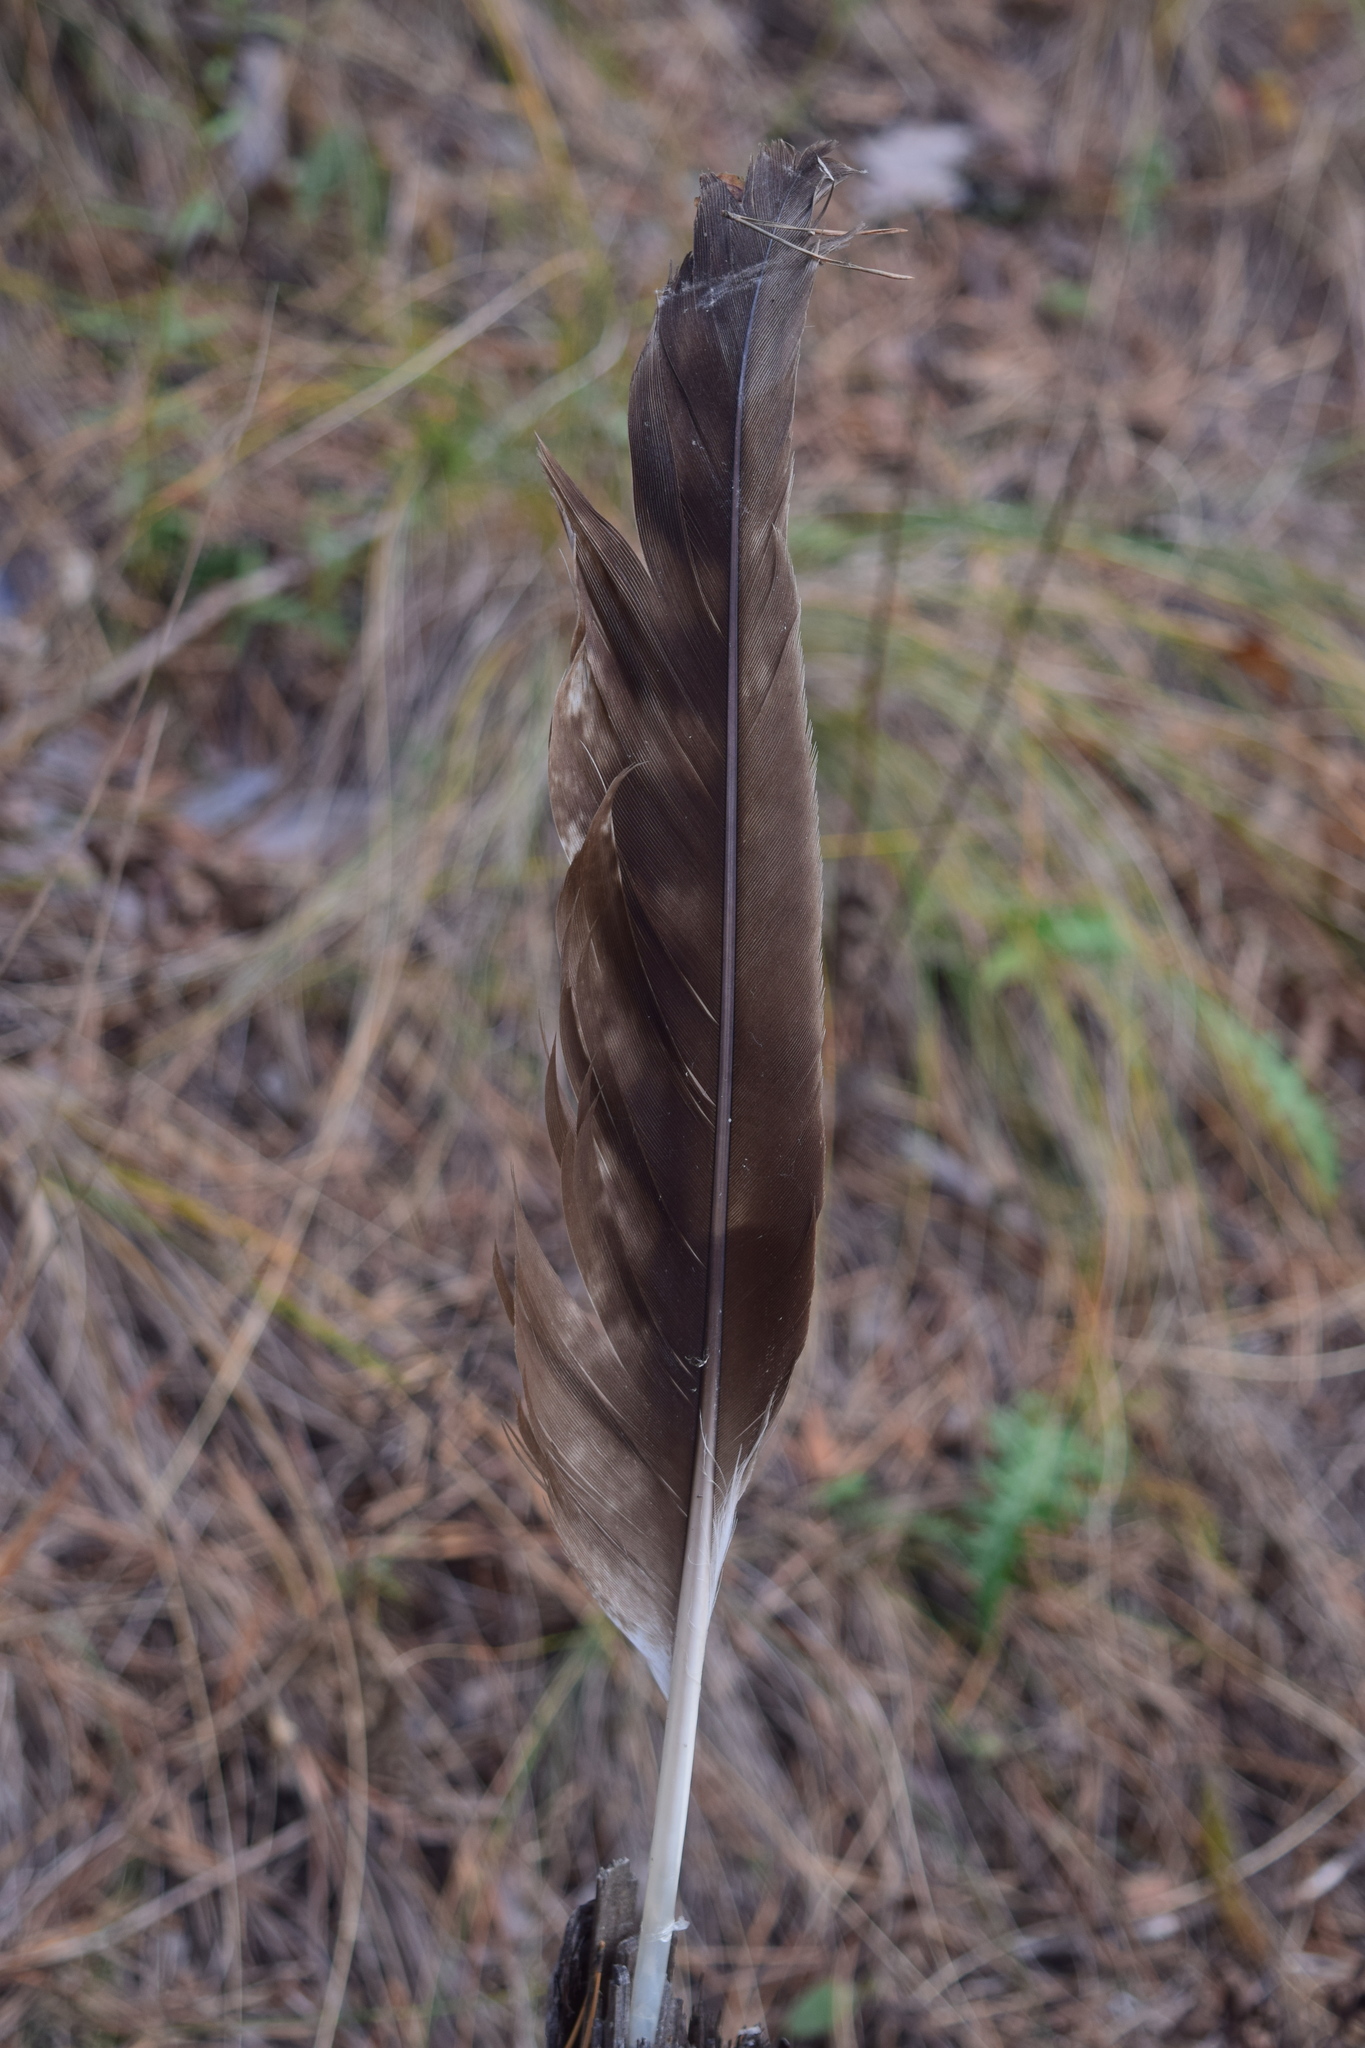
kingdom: Animalia
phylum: Chordata
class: Aves
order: Accipitriformes
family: Accipitridae
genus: Milvus
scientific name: Milvus migrans
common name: Black kite
